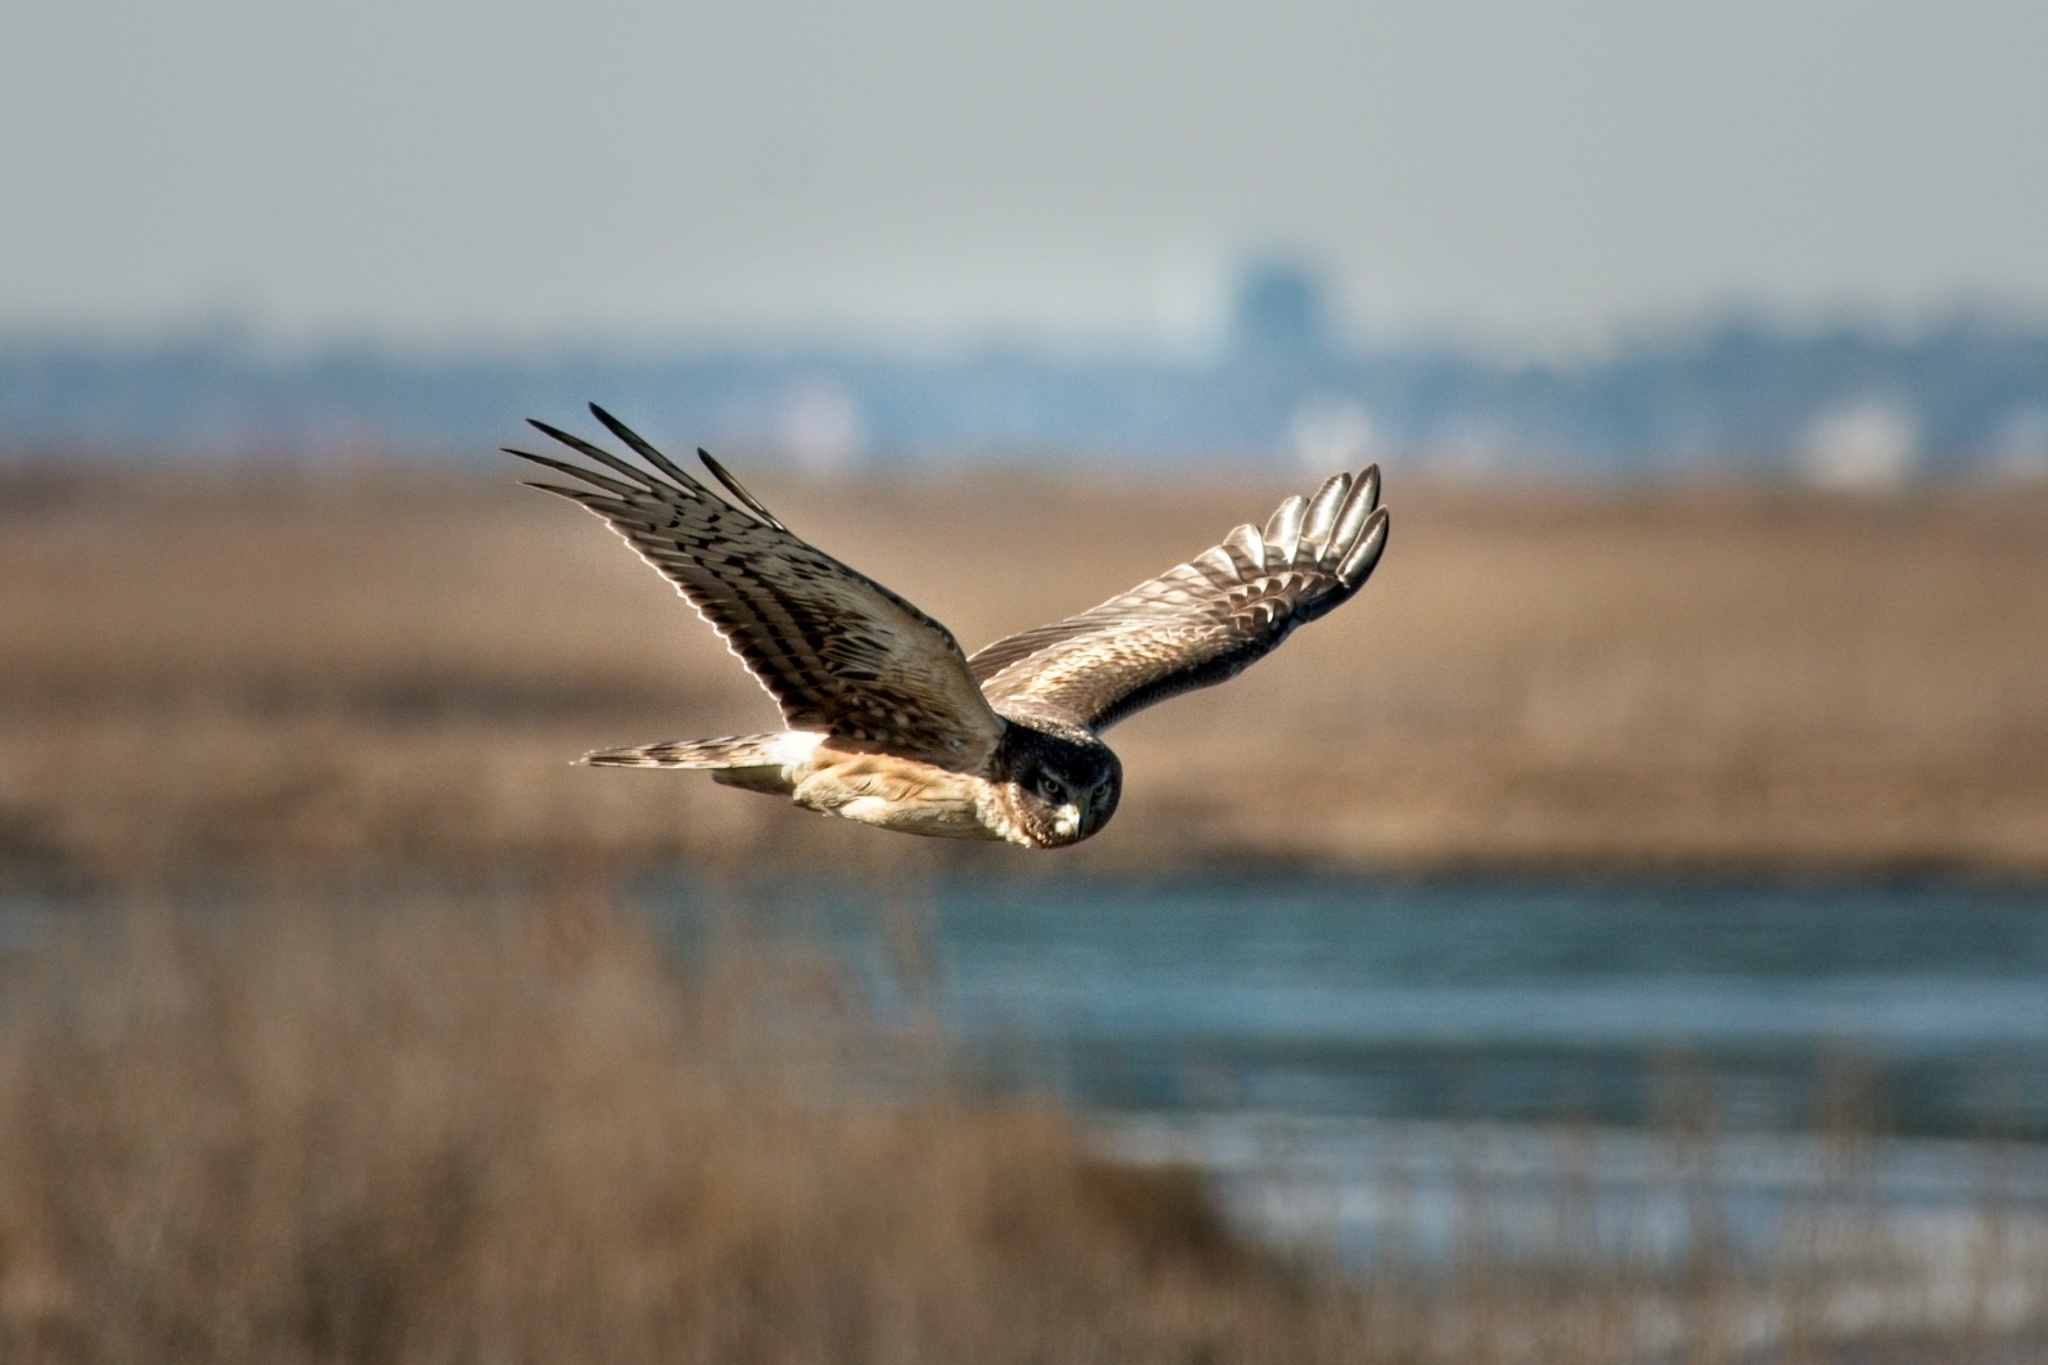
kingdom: Animalia
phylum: Chordata
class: Aves
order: Accipitriformes
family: Accipitridae
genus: Circus
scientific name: Circus cyaneus
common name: Hen harrier
